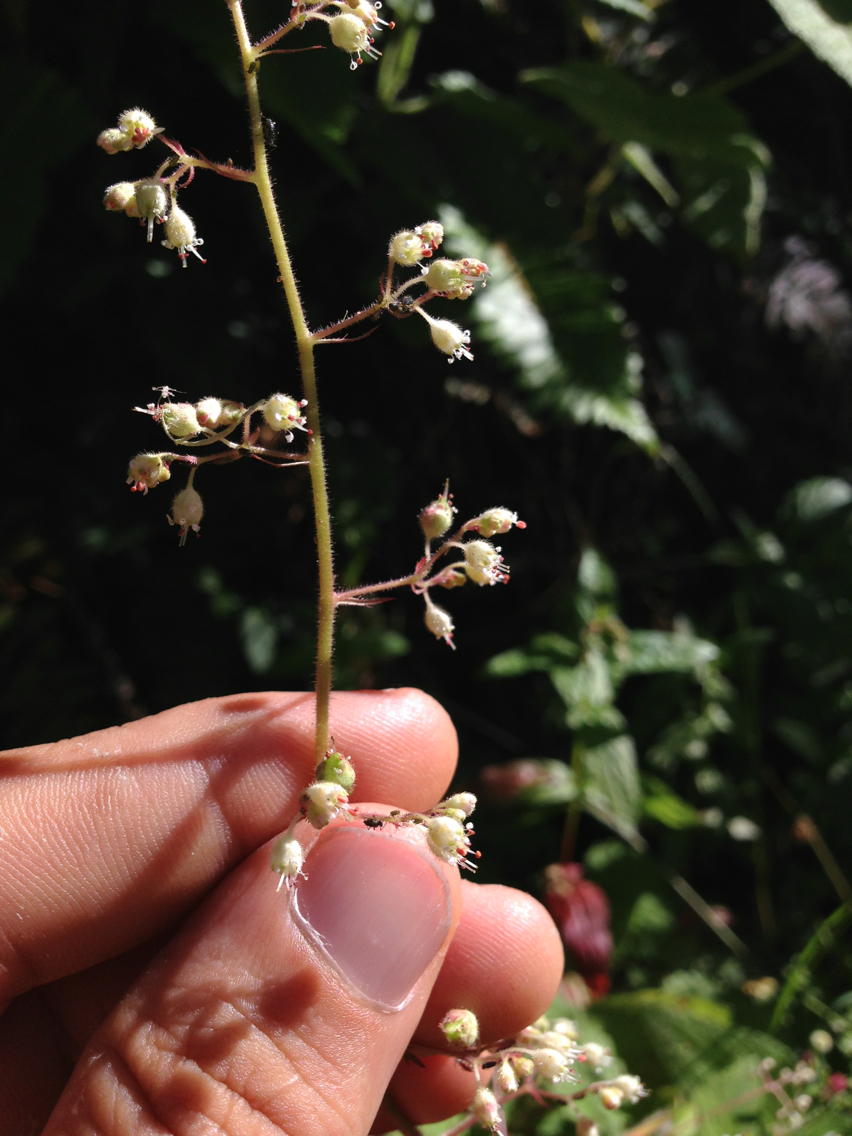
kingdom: Plantae
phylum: Tracheophyta
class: Magnoliopsida
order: Saxifragales
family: Saxifragaceae
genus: Heuchera
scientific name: Heuchera micrantha
